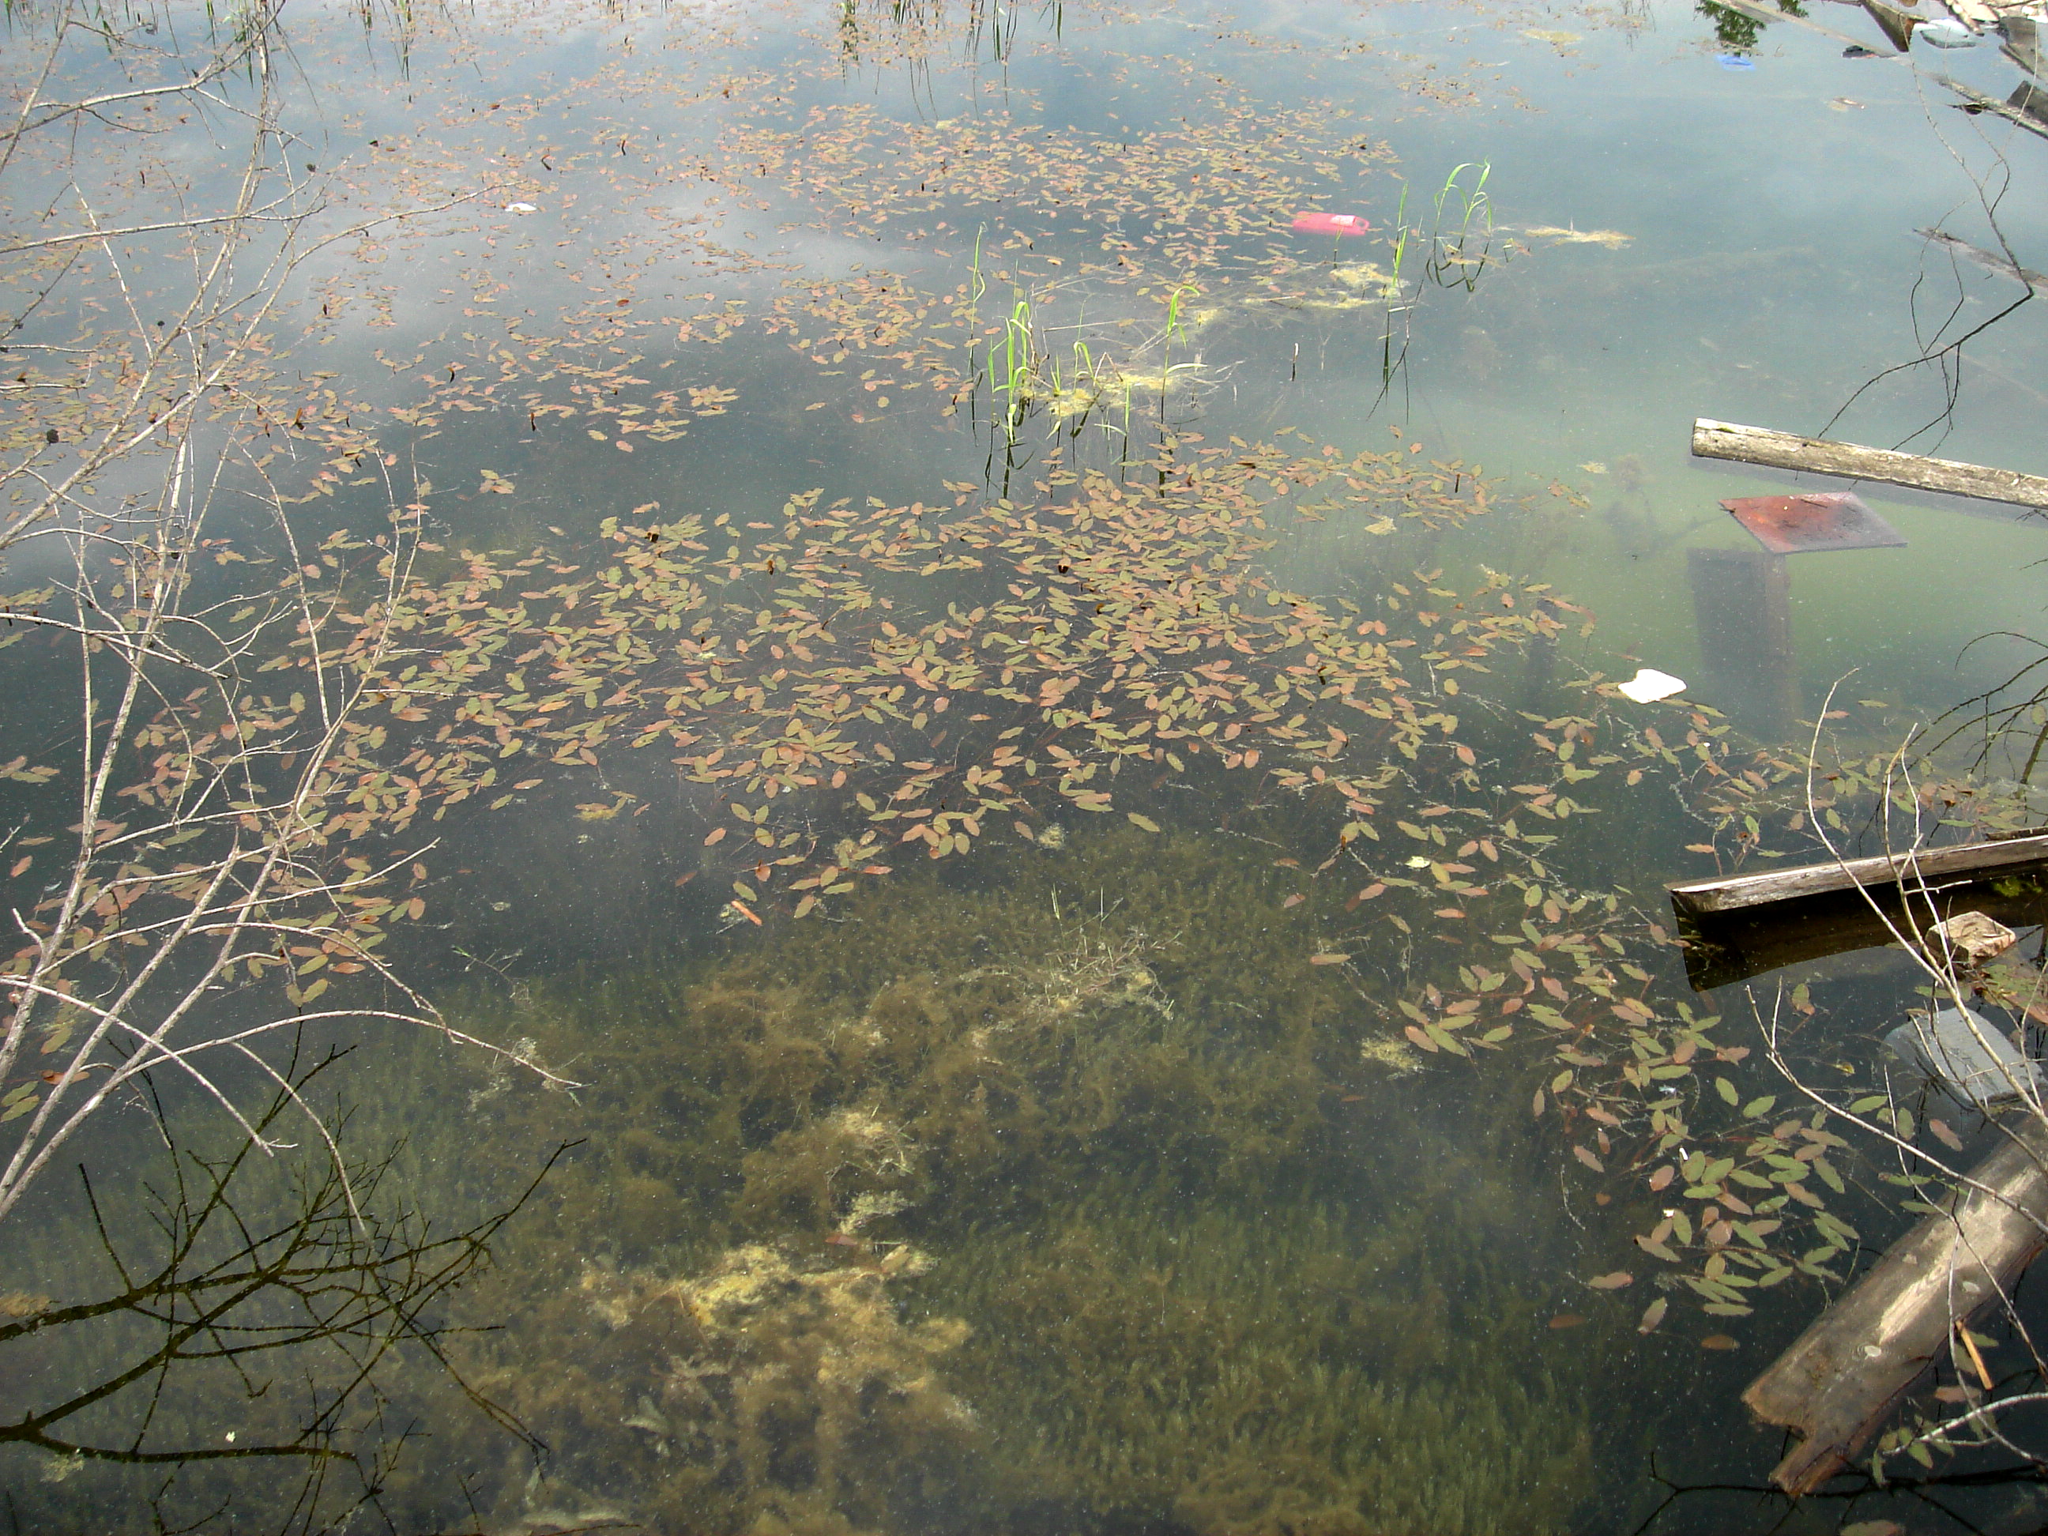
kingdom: Plantae
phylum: Charophyta
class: Charophyceae
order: Charales
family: Characeae
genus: Chara
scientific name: Chara
